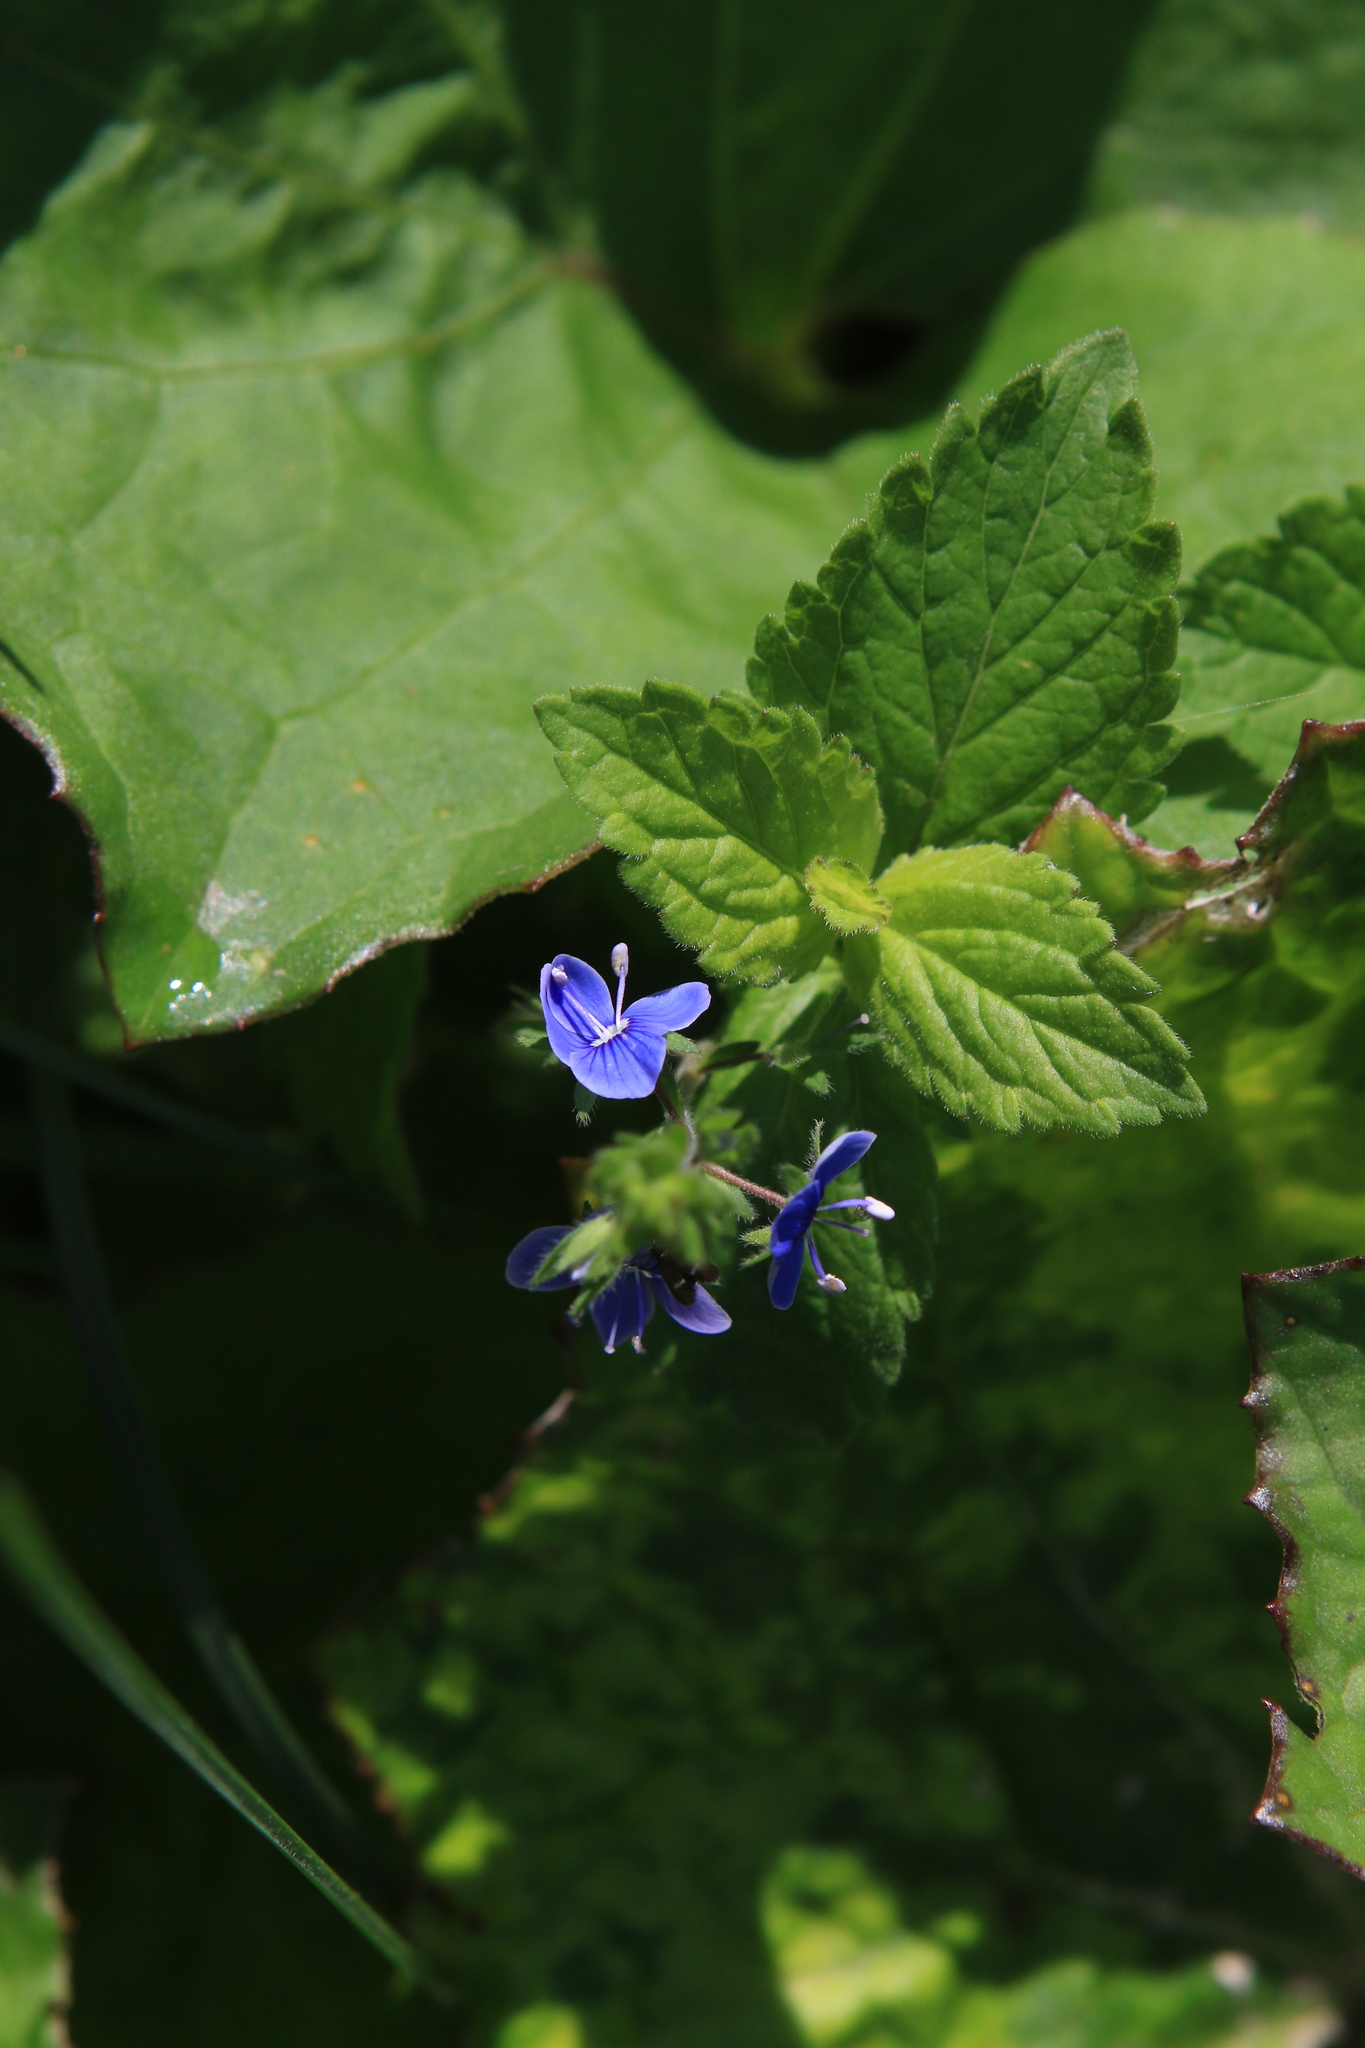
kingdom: Plantae
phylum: Tracheophyta
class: Magnoliopsida
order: Lamiales
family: Plantaginaceae
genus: Veronica
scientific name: Veronica chamaedrys
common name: Germander speedwell
